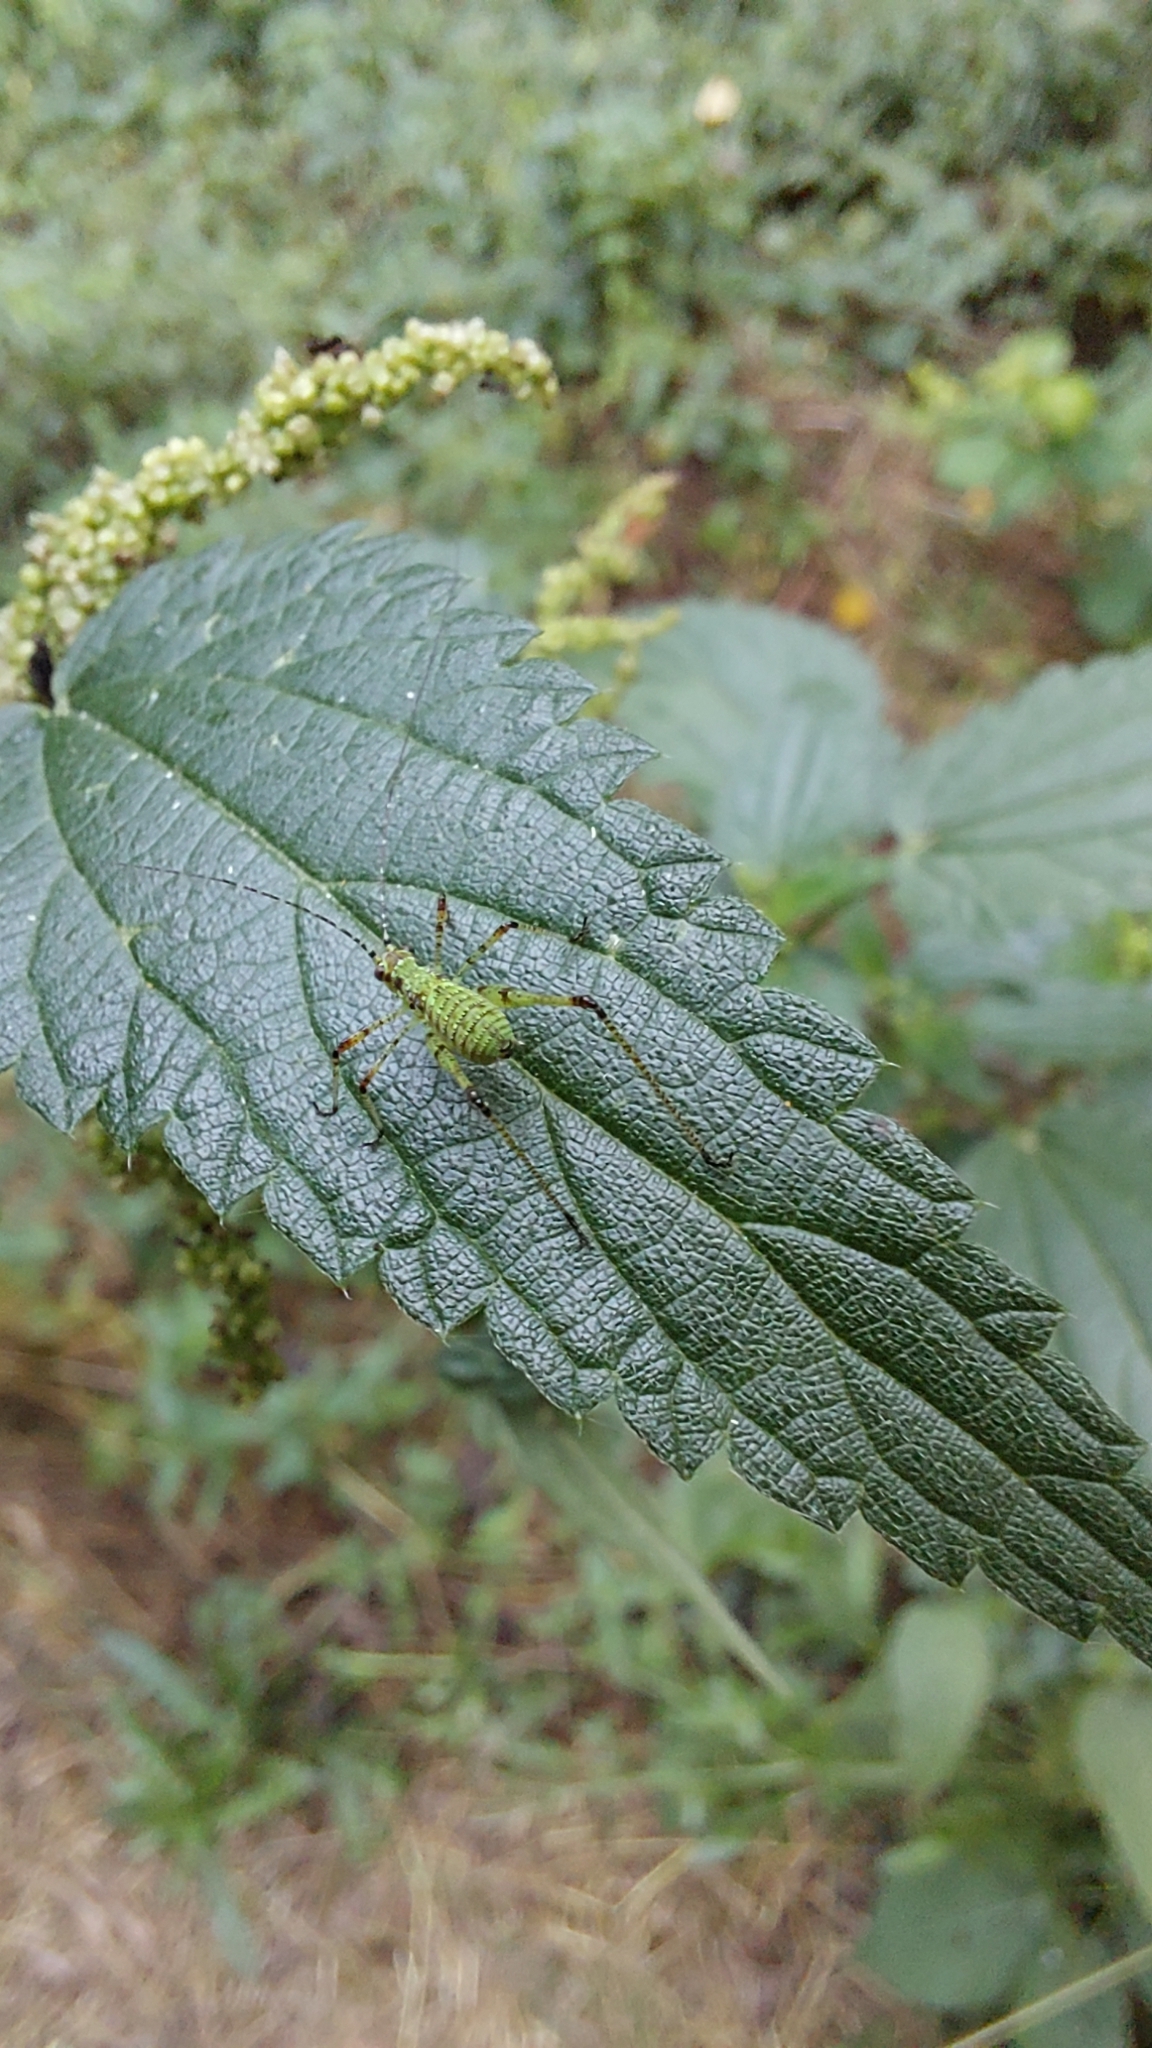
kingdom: Animalia
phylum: Arthropoda
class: Insecta
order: Orthoptera
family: Tettigoniidae
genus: Phaneroptera
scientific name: Phaneroptera nana
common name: Southern sickle bush-cricket
